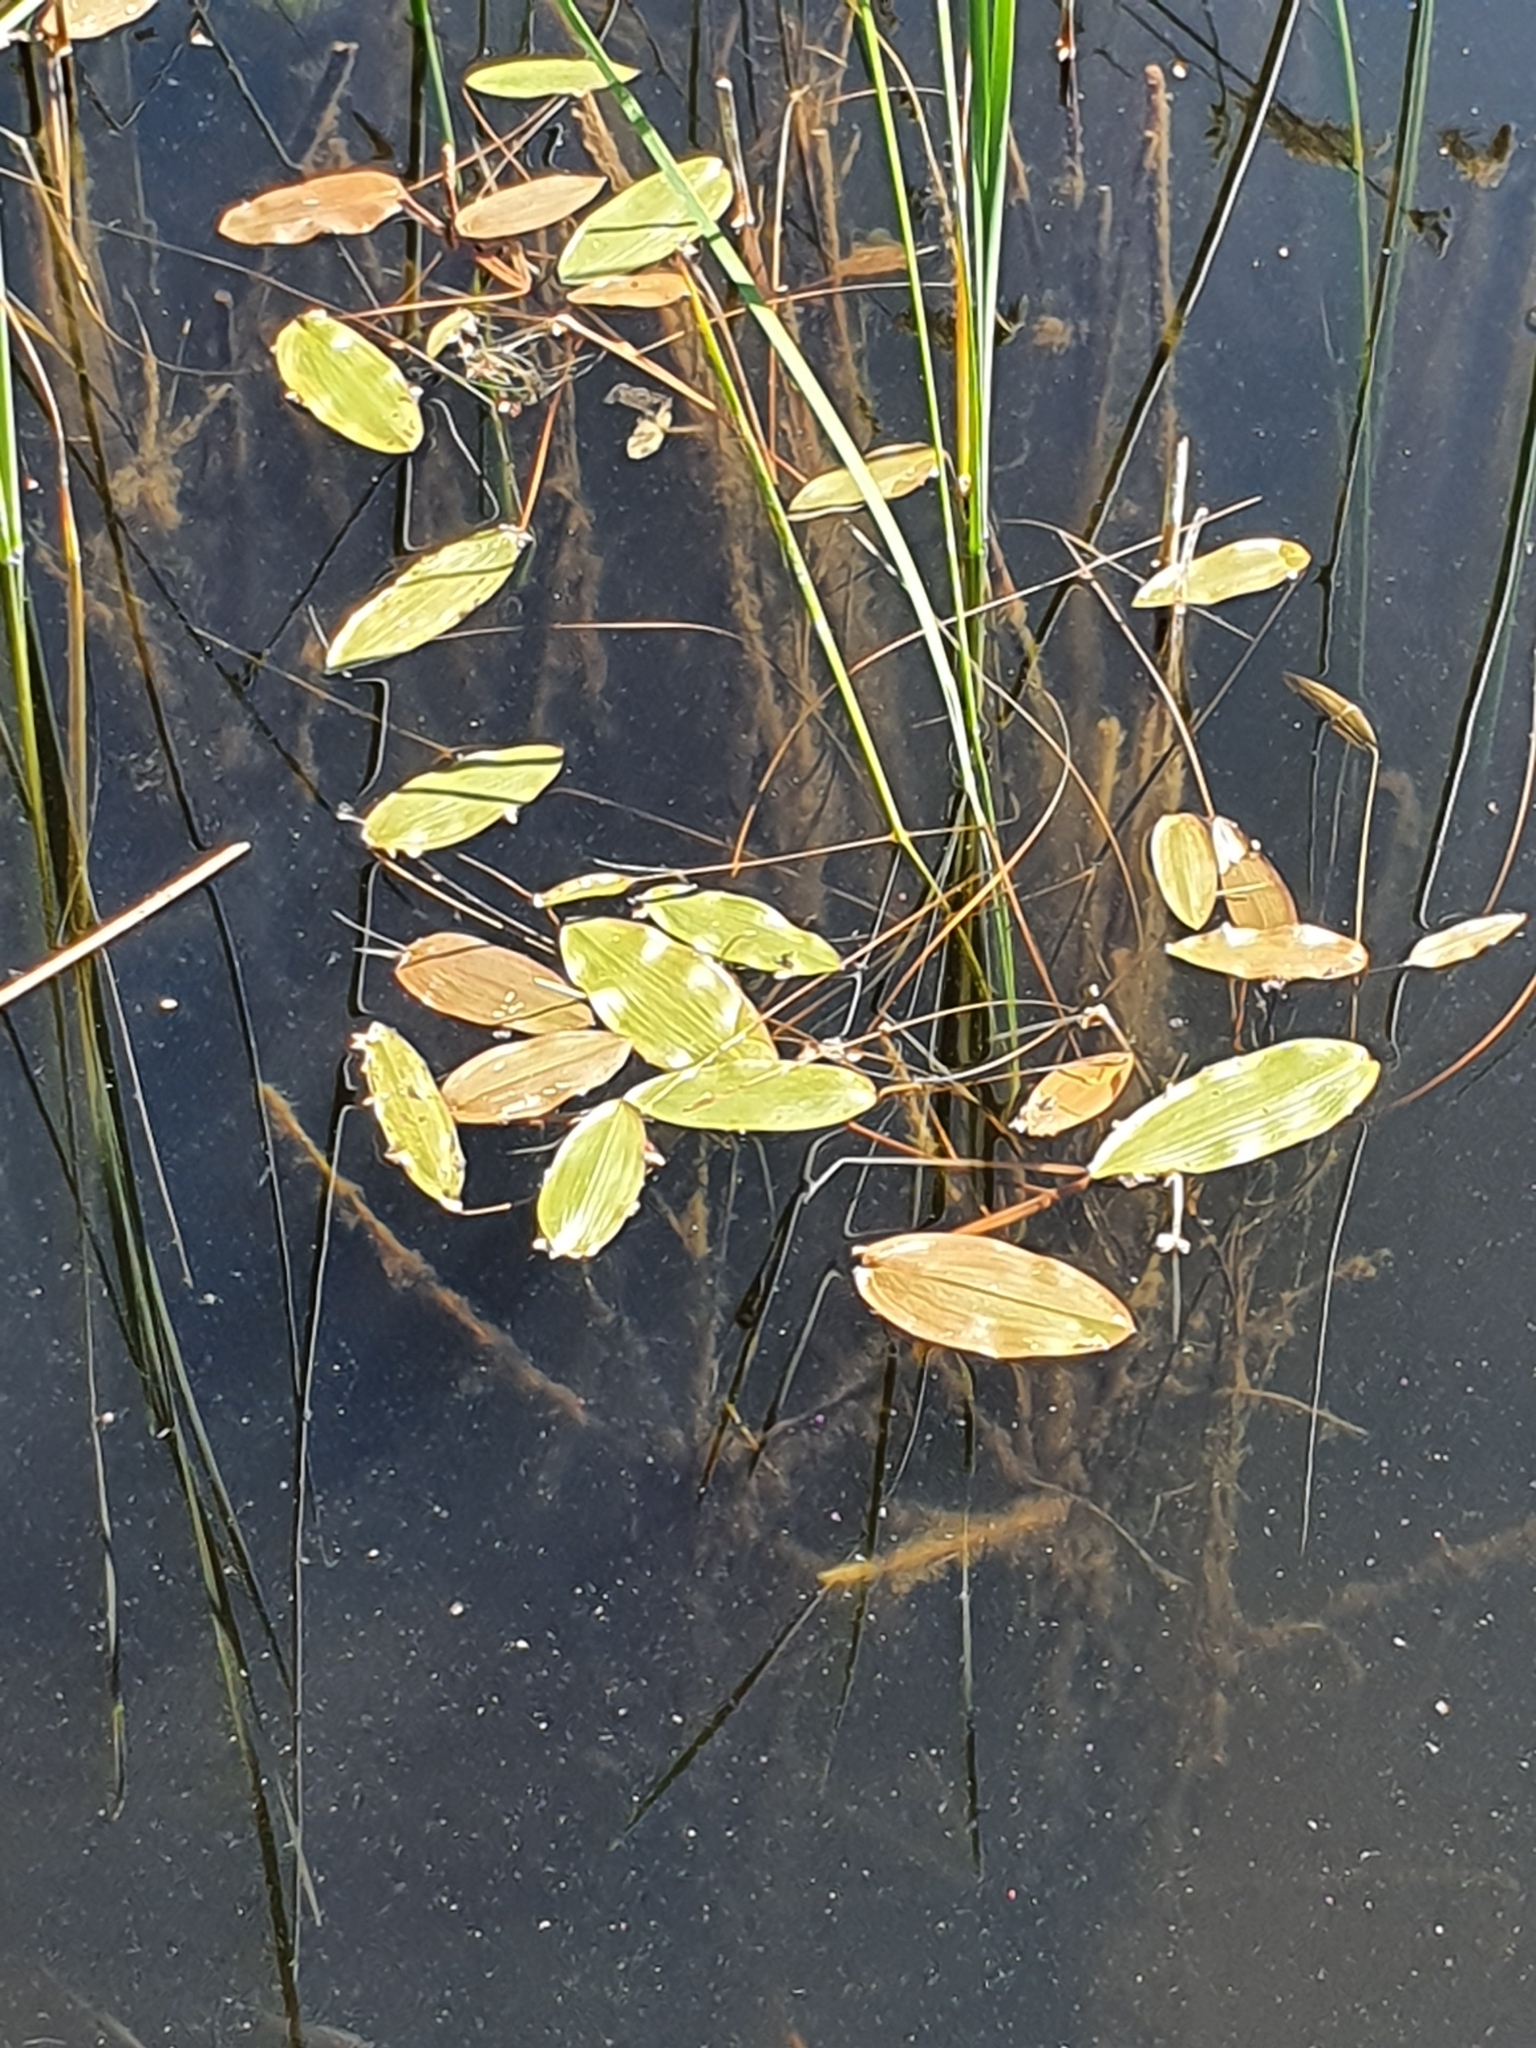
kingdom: Plantae
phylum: Tracheophyta
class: Liliopsida
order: Alismatales
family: Potamogetonaceae
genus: Potamogeton
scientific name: Potamogeton natans
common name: Broad-leaved pondweed
